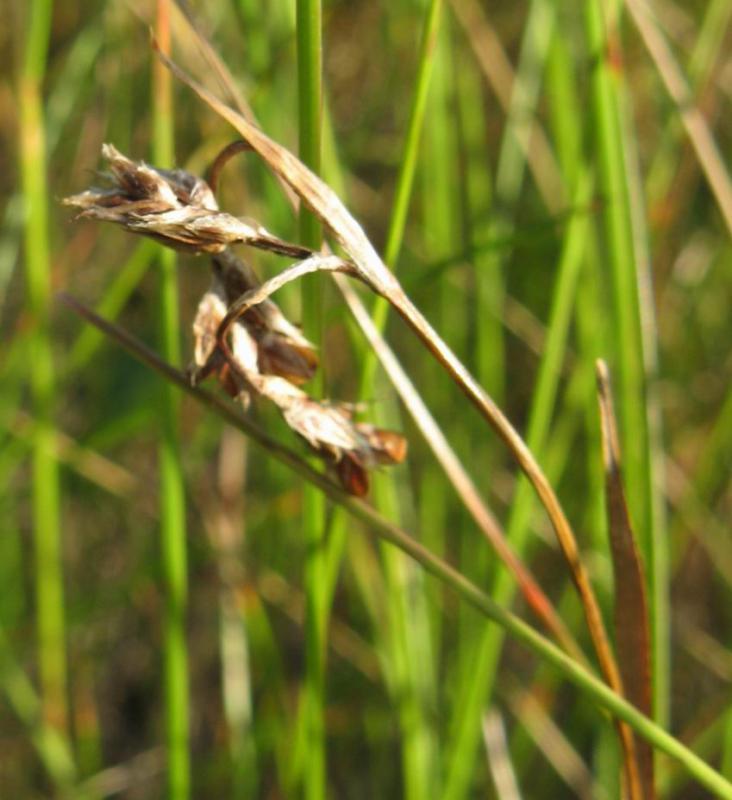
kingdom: Plantae
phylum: Tracheophyta
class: Liliopsida
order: Poales
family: Cyperaceae
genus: Carex
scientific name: Carex capillaris
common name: Hair sedge
